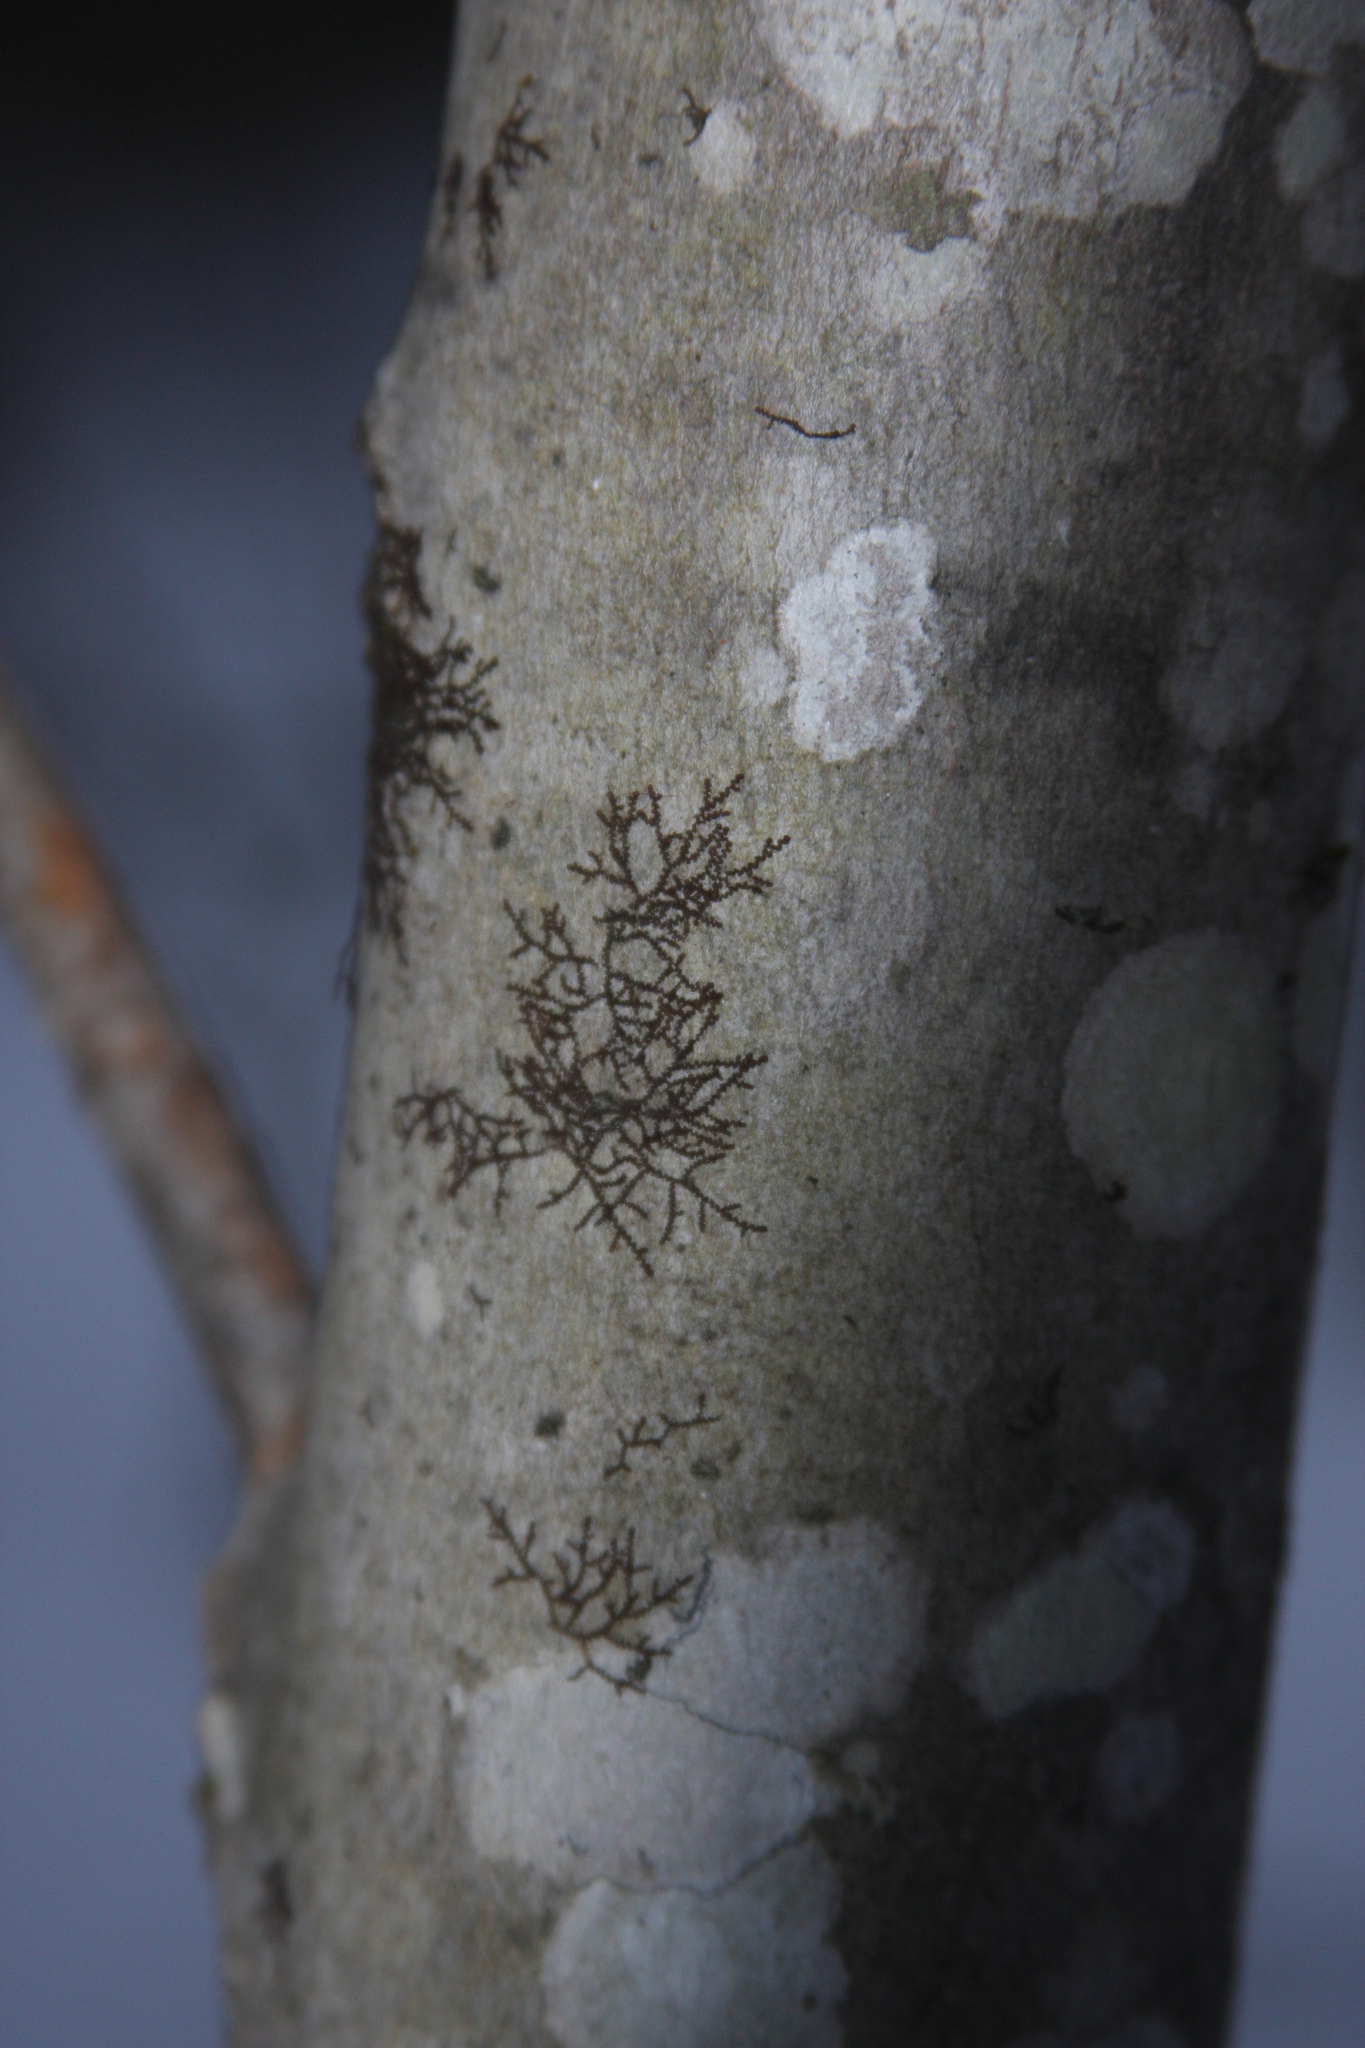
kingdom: Plantae
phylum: Marchantiophyta
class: Jungermanniopsida
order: Porellales
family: Frullaniaceae
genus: Frullania
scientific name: Frullania eboracensis
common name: New york scalewort
